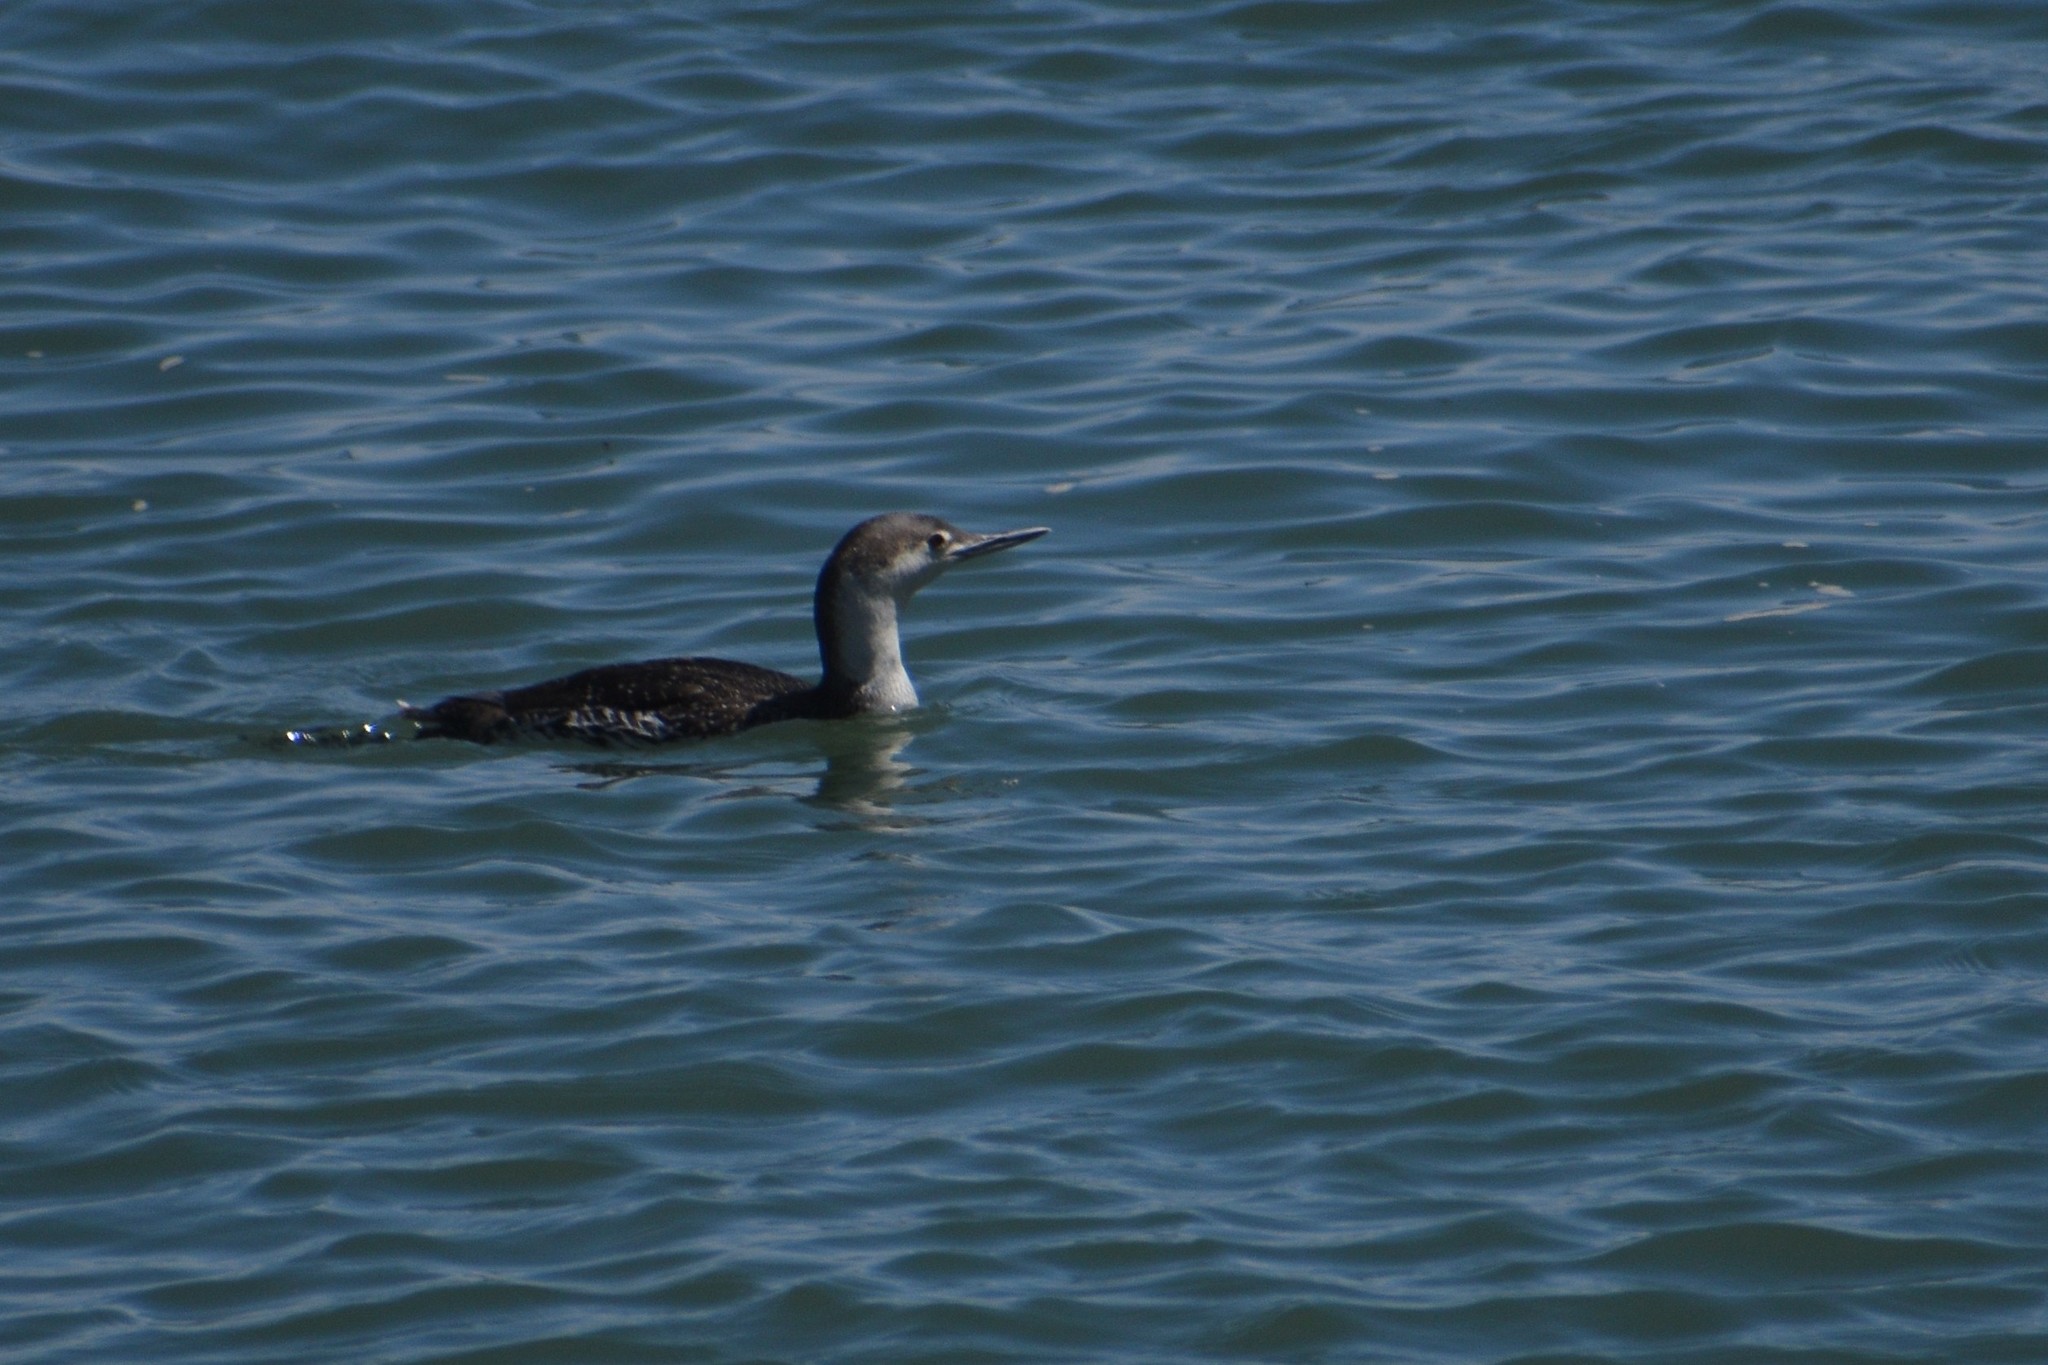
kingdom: Animalia
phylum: Chordata
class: Aves
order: Gaviiformes
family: Gaviidae
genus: Gavia
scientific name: Gavia stellata
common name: Red-throated loon
